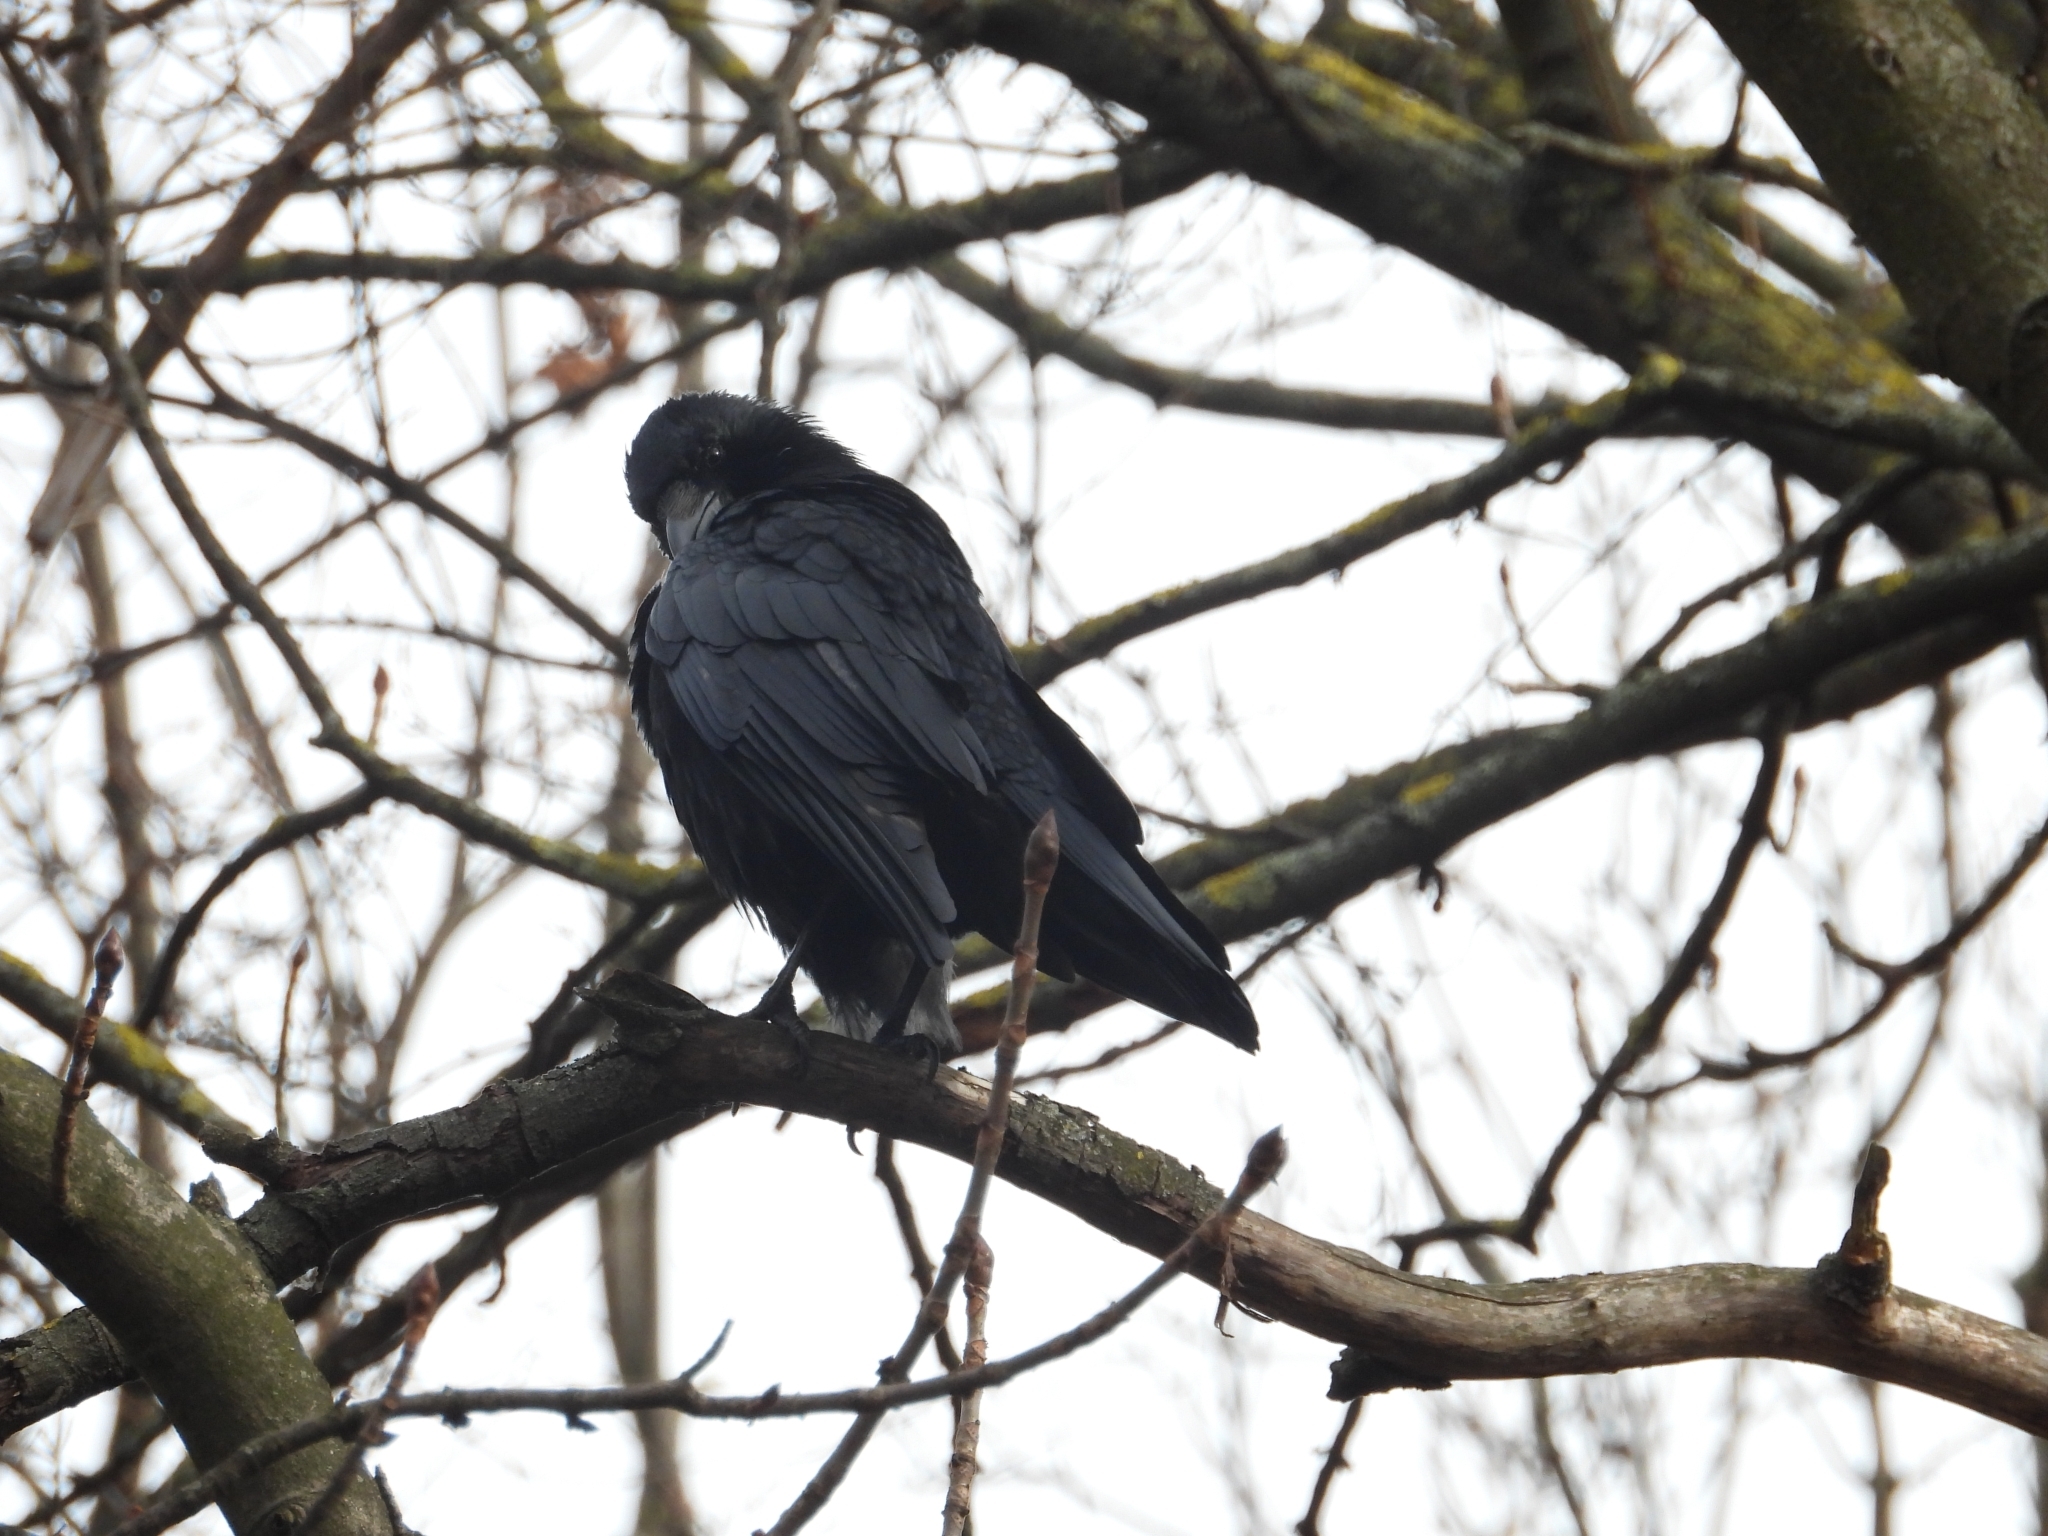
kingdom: Animalia
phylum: Chordata
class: Aves
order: Passeriformes
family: Corvidae
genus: Corvus
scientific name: Corvus corone
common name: Carrion crow
